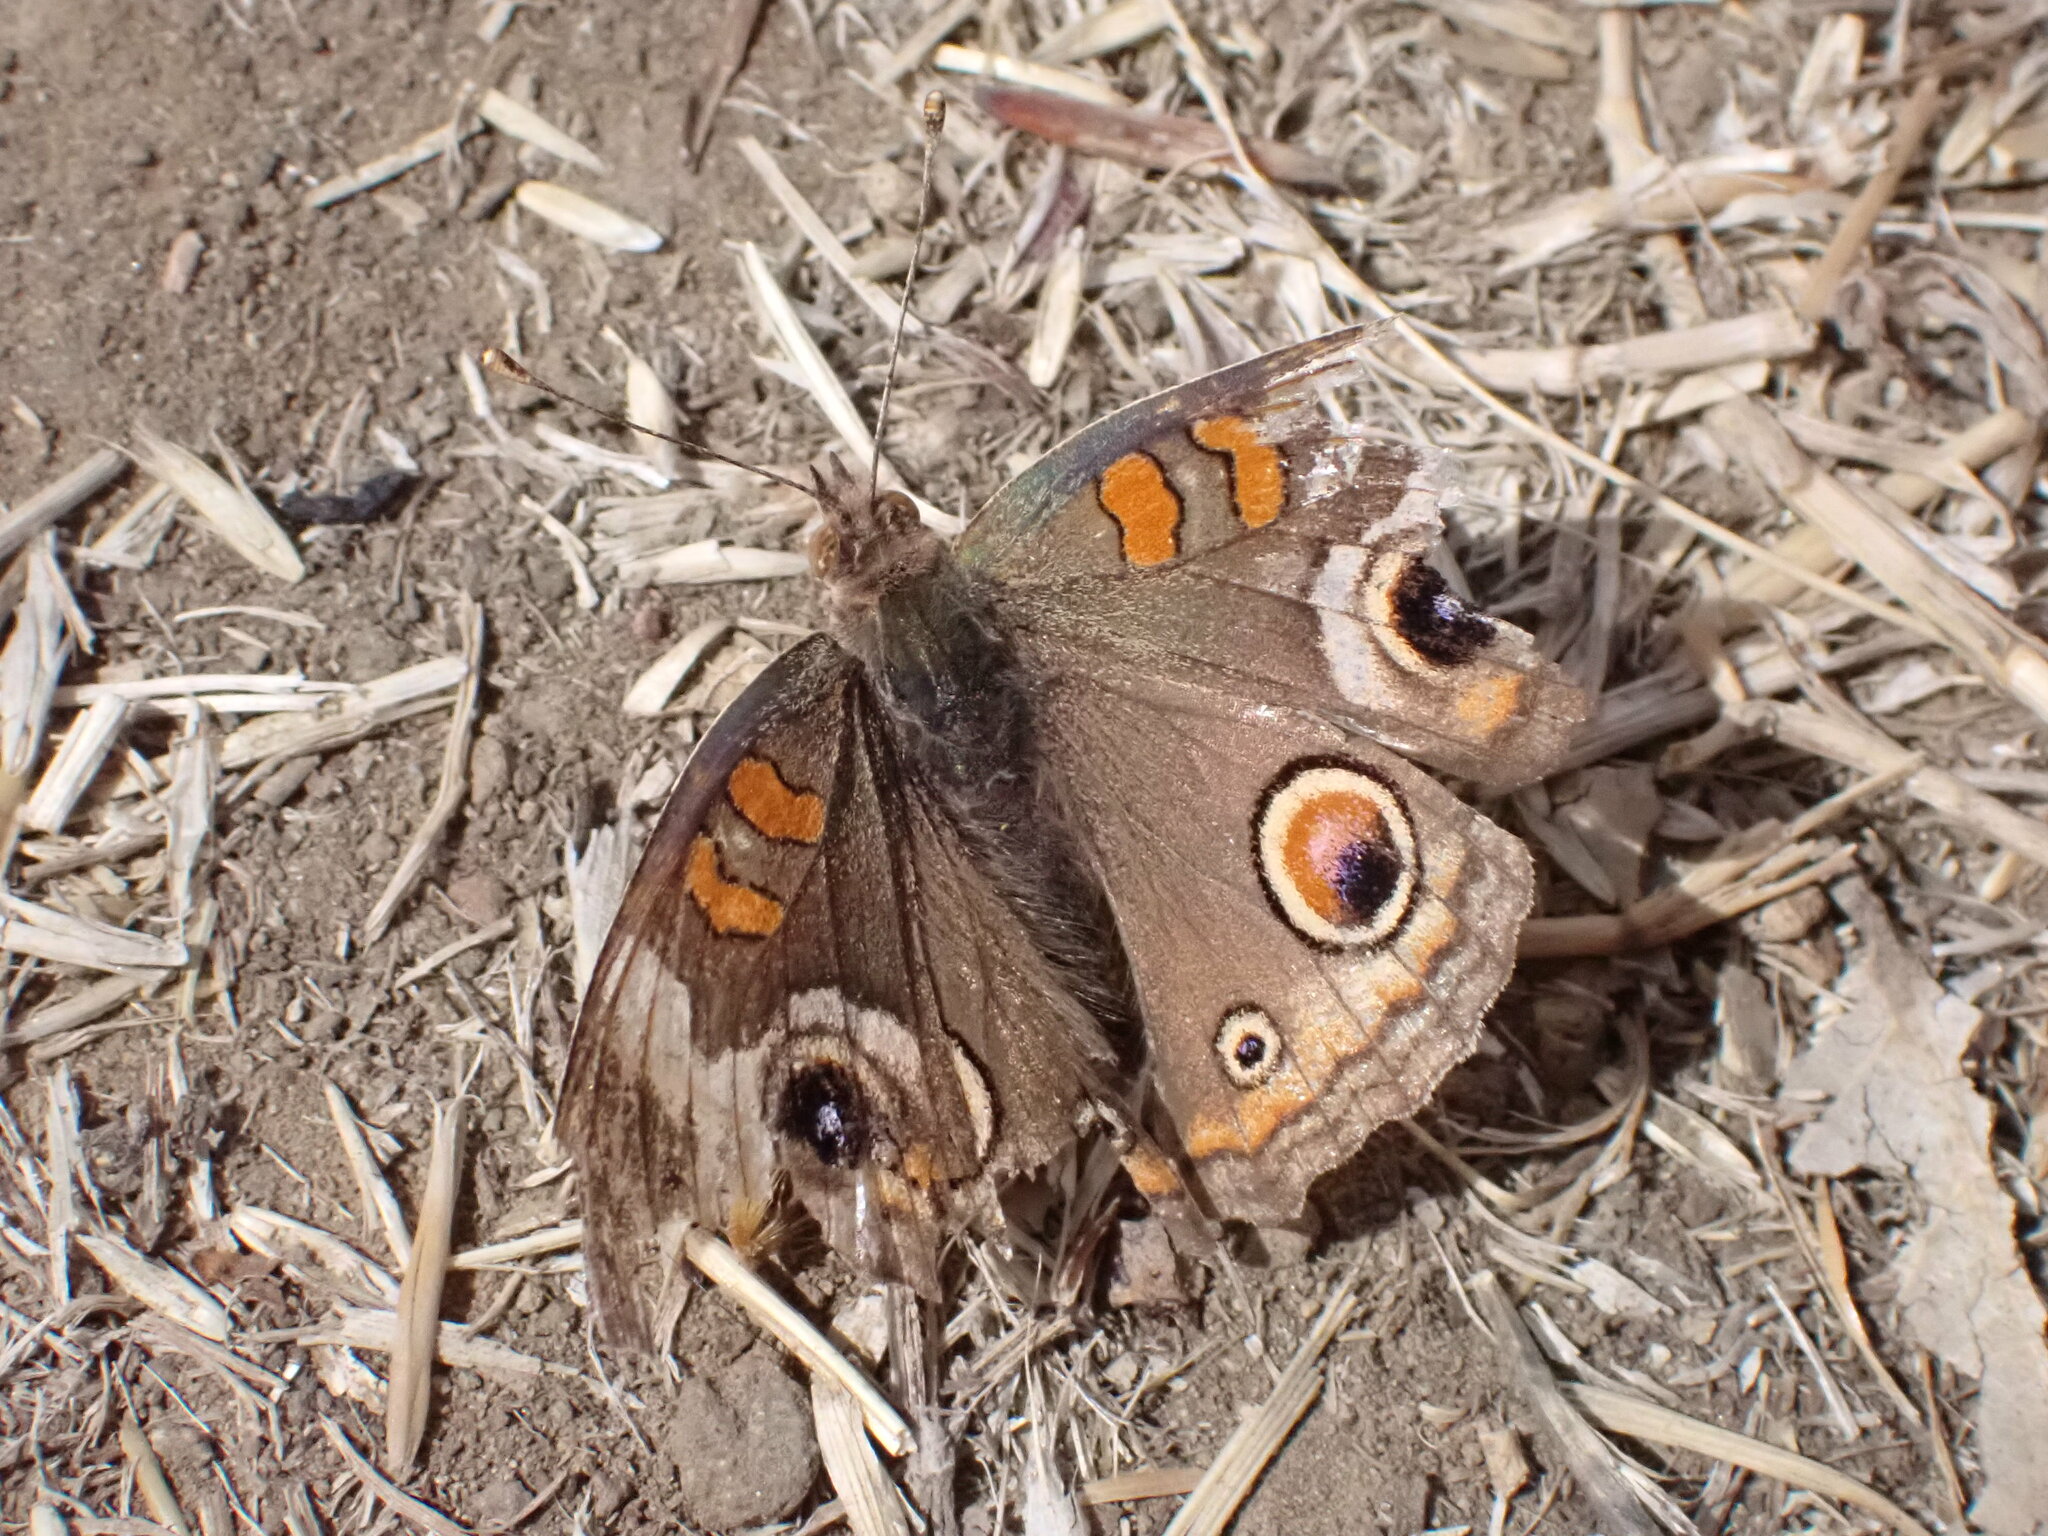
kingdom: Animalia
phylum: Arthropoda
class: Insecta
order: Lepidoptera
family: Nymphalidae
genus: Junonia
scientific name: Junonia grisea
